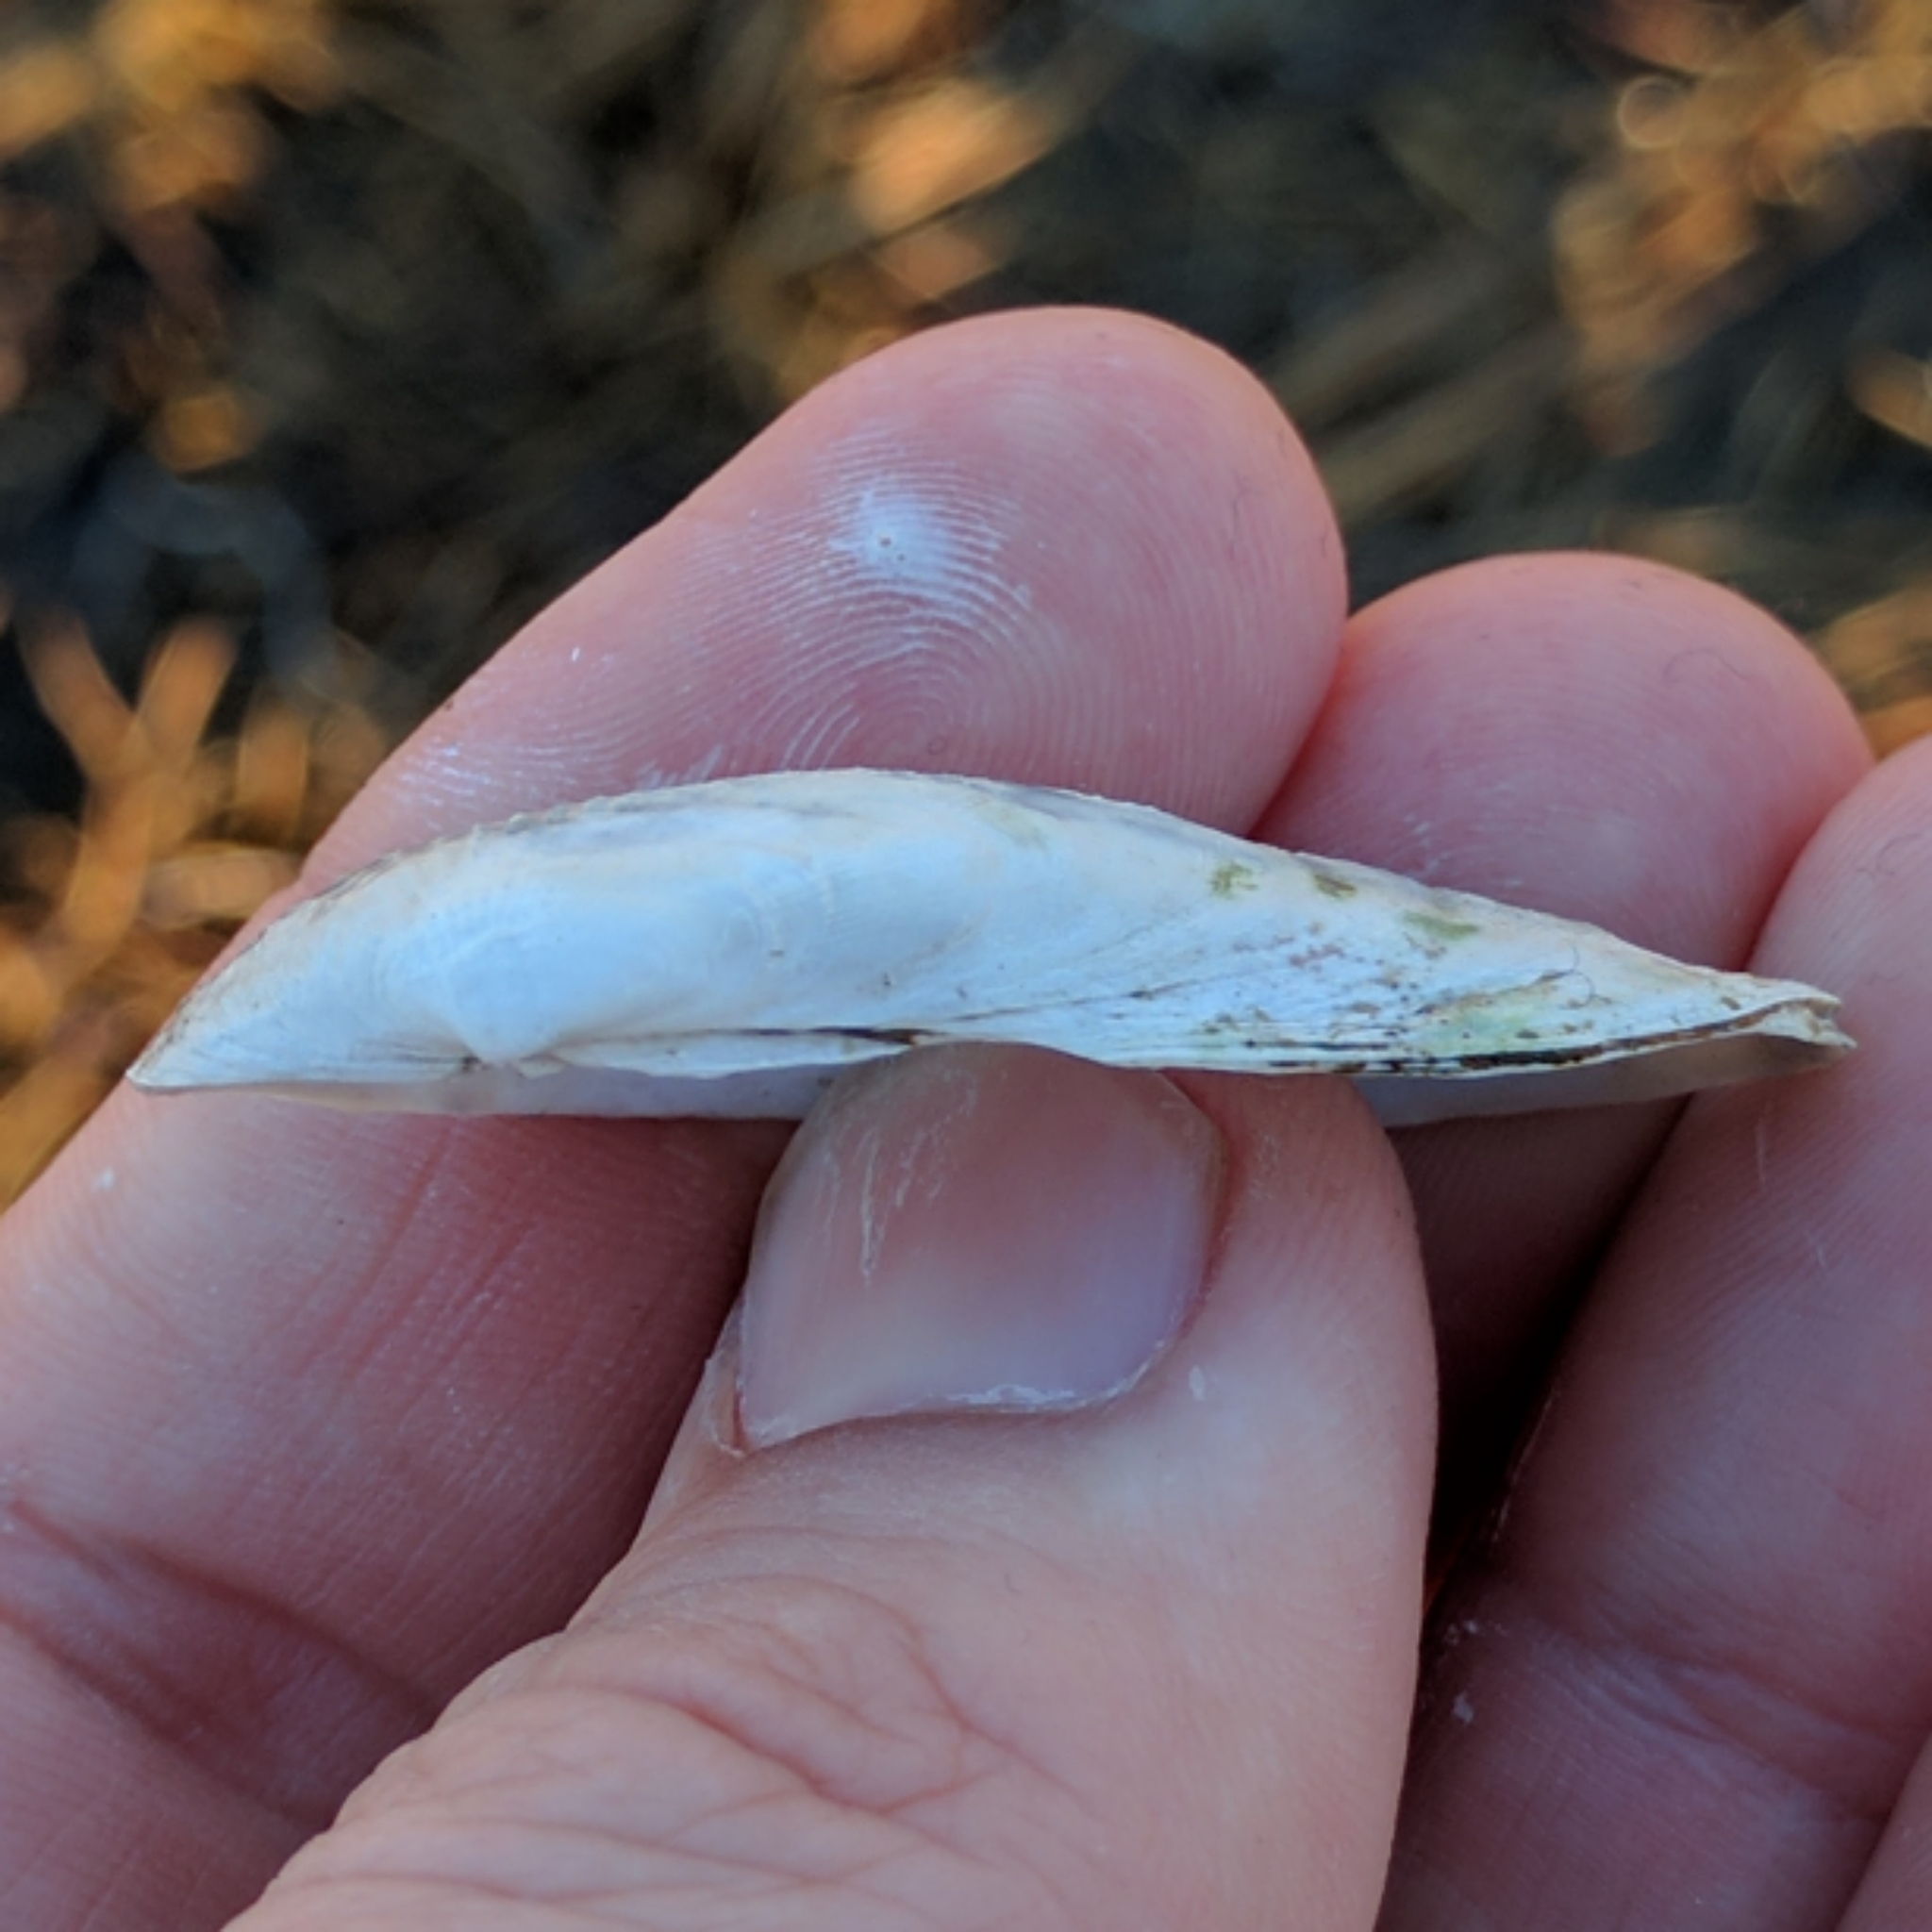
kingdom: Animalia
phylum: Mollusca
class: Bivalvia
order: Venerida
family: Veneridae
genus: Petricolaria
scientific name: Petricolaria pholadiformis
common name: American piddock
